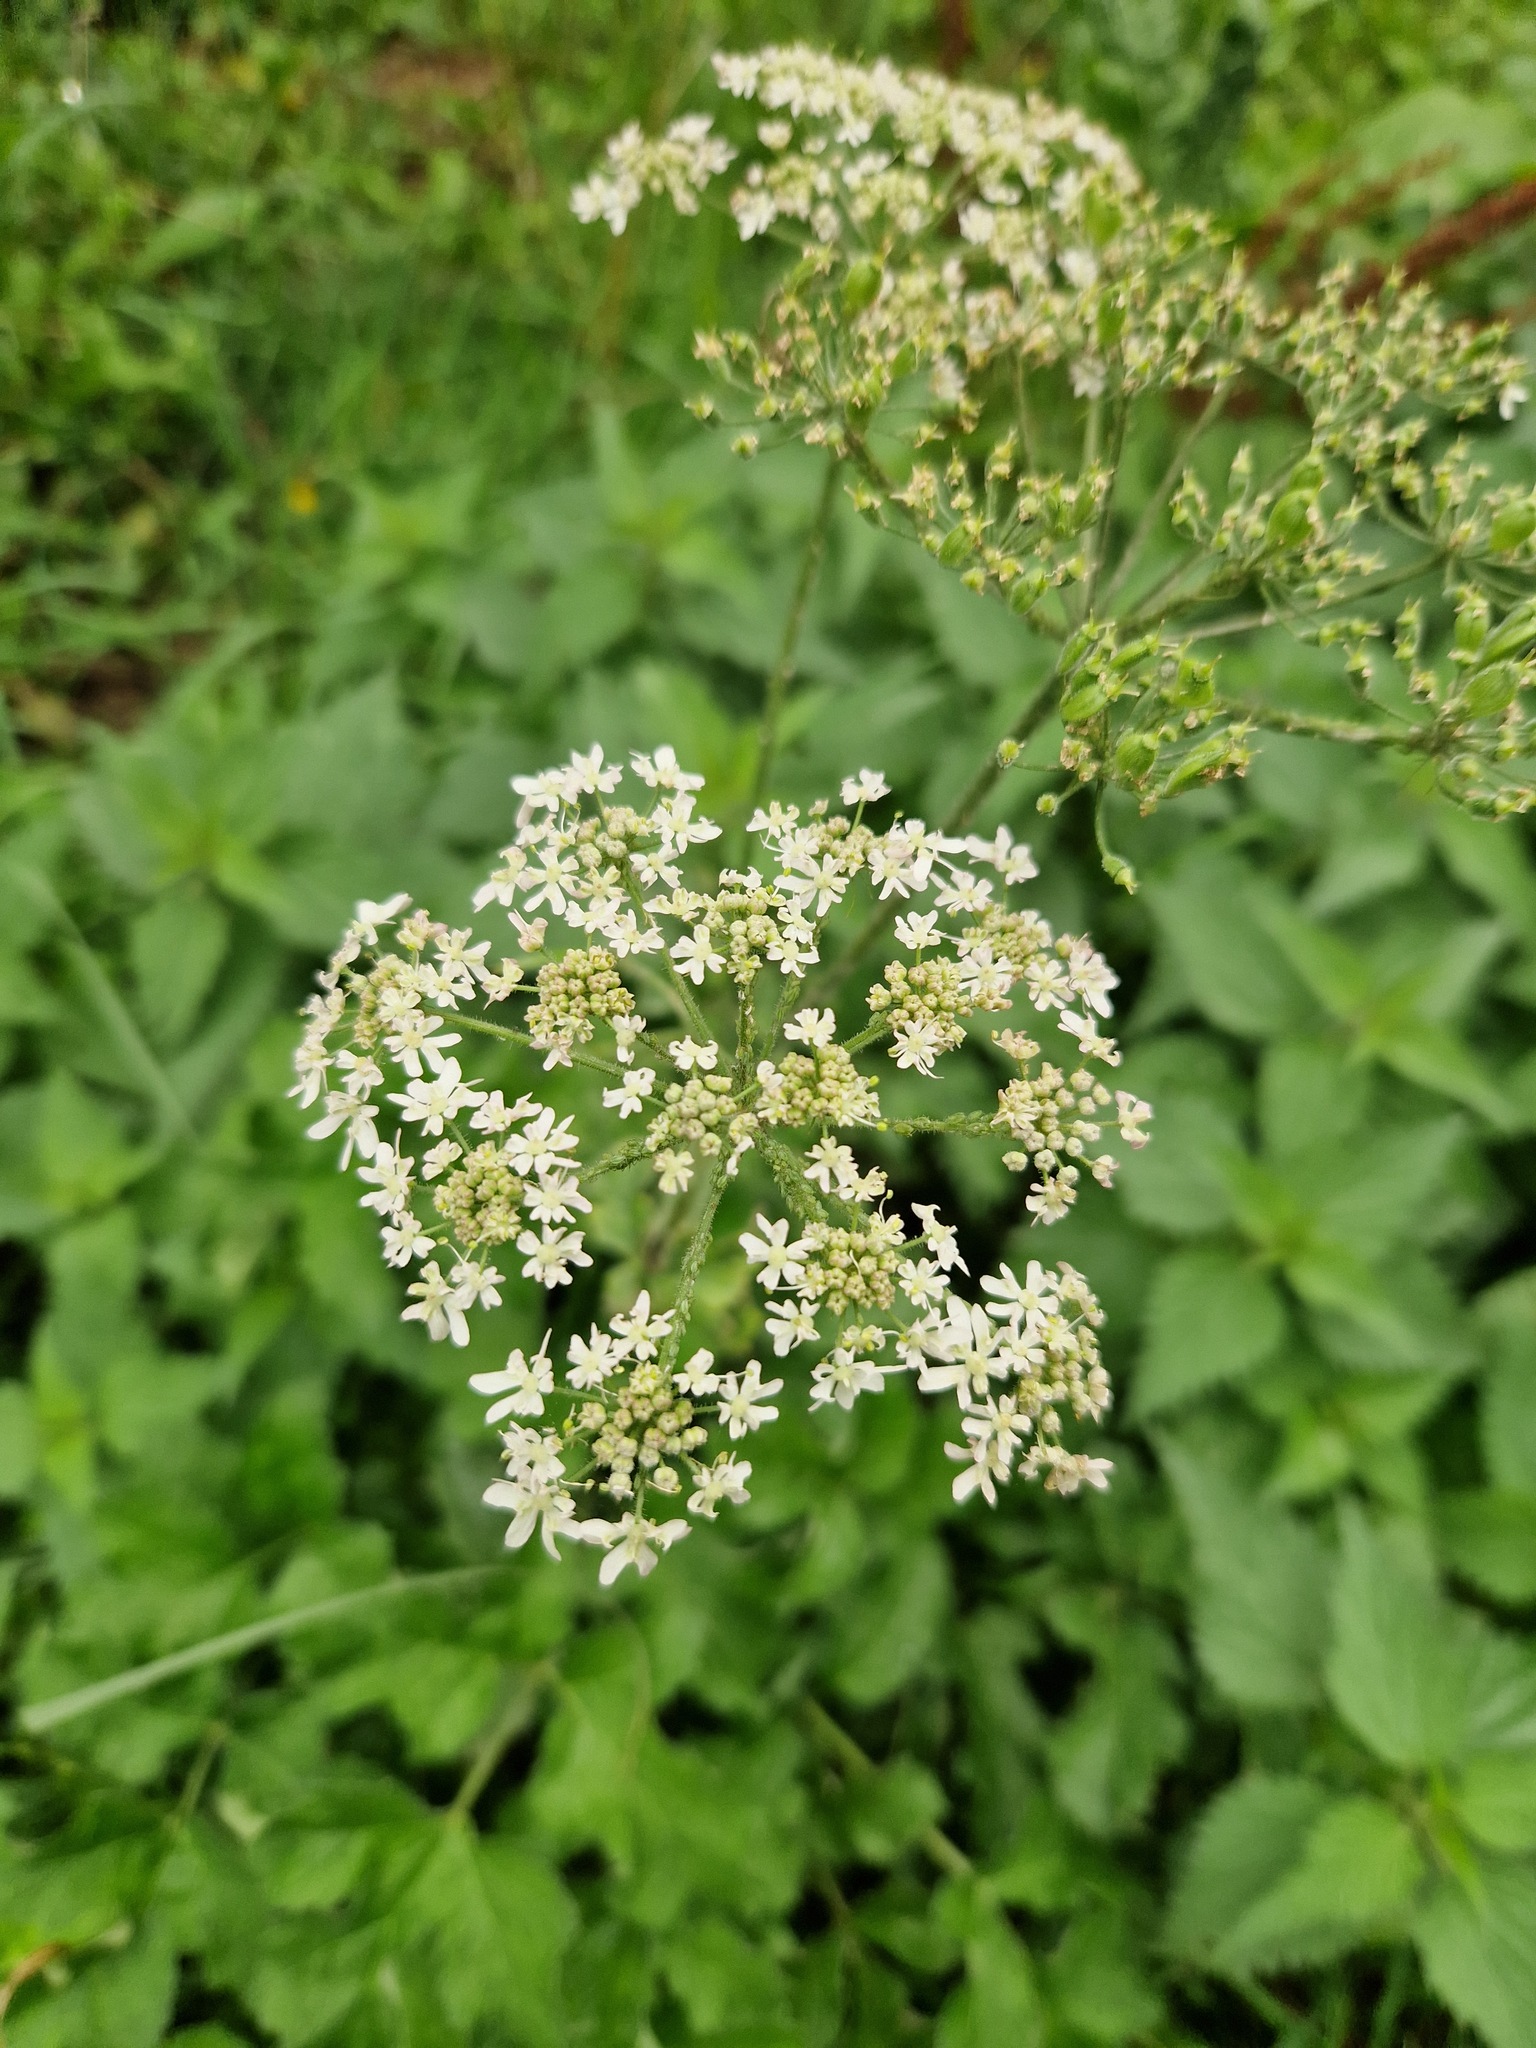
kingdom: Plantae
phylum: Tracheophyta
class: Magnoliopsida
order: Apiales
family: Apiaceae
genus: Heracleum
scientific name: Heracleum sphondylium
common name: Hogweed
